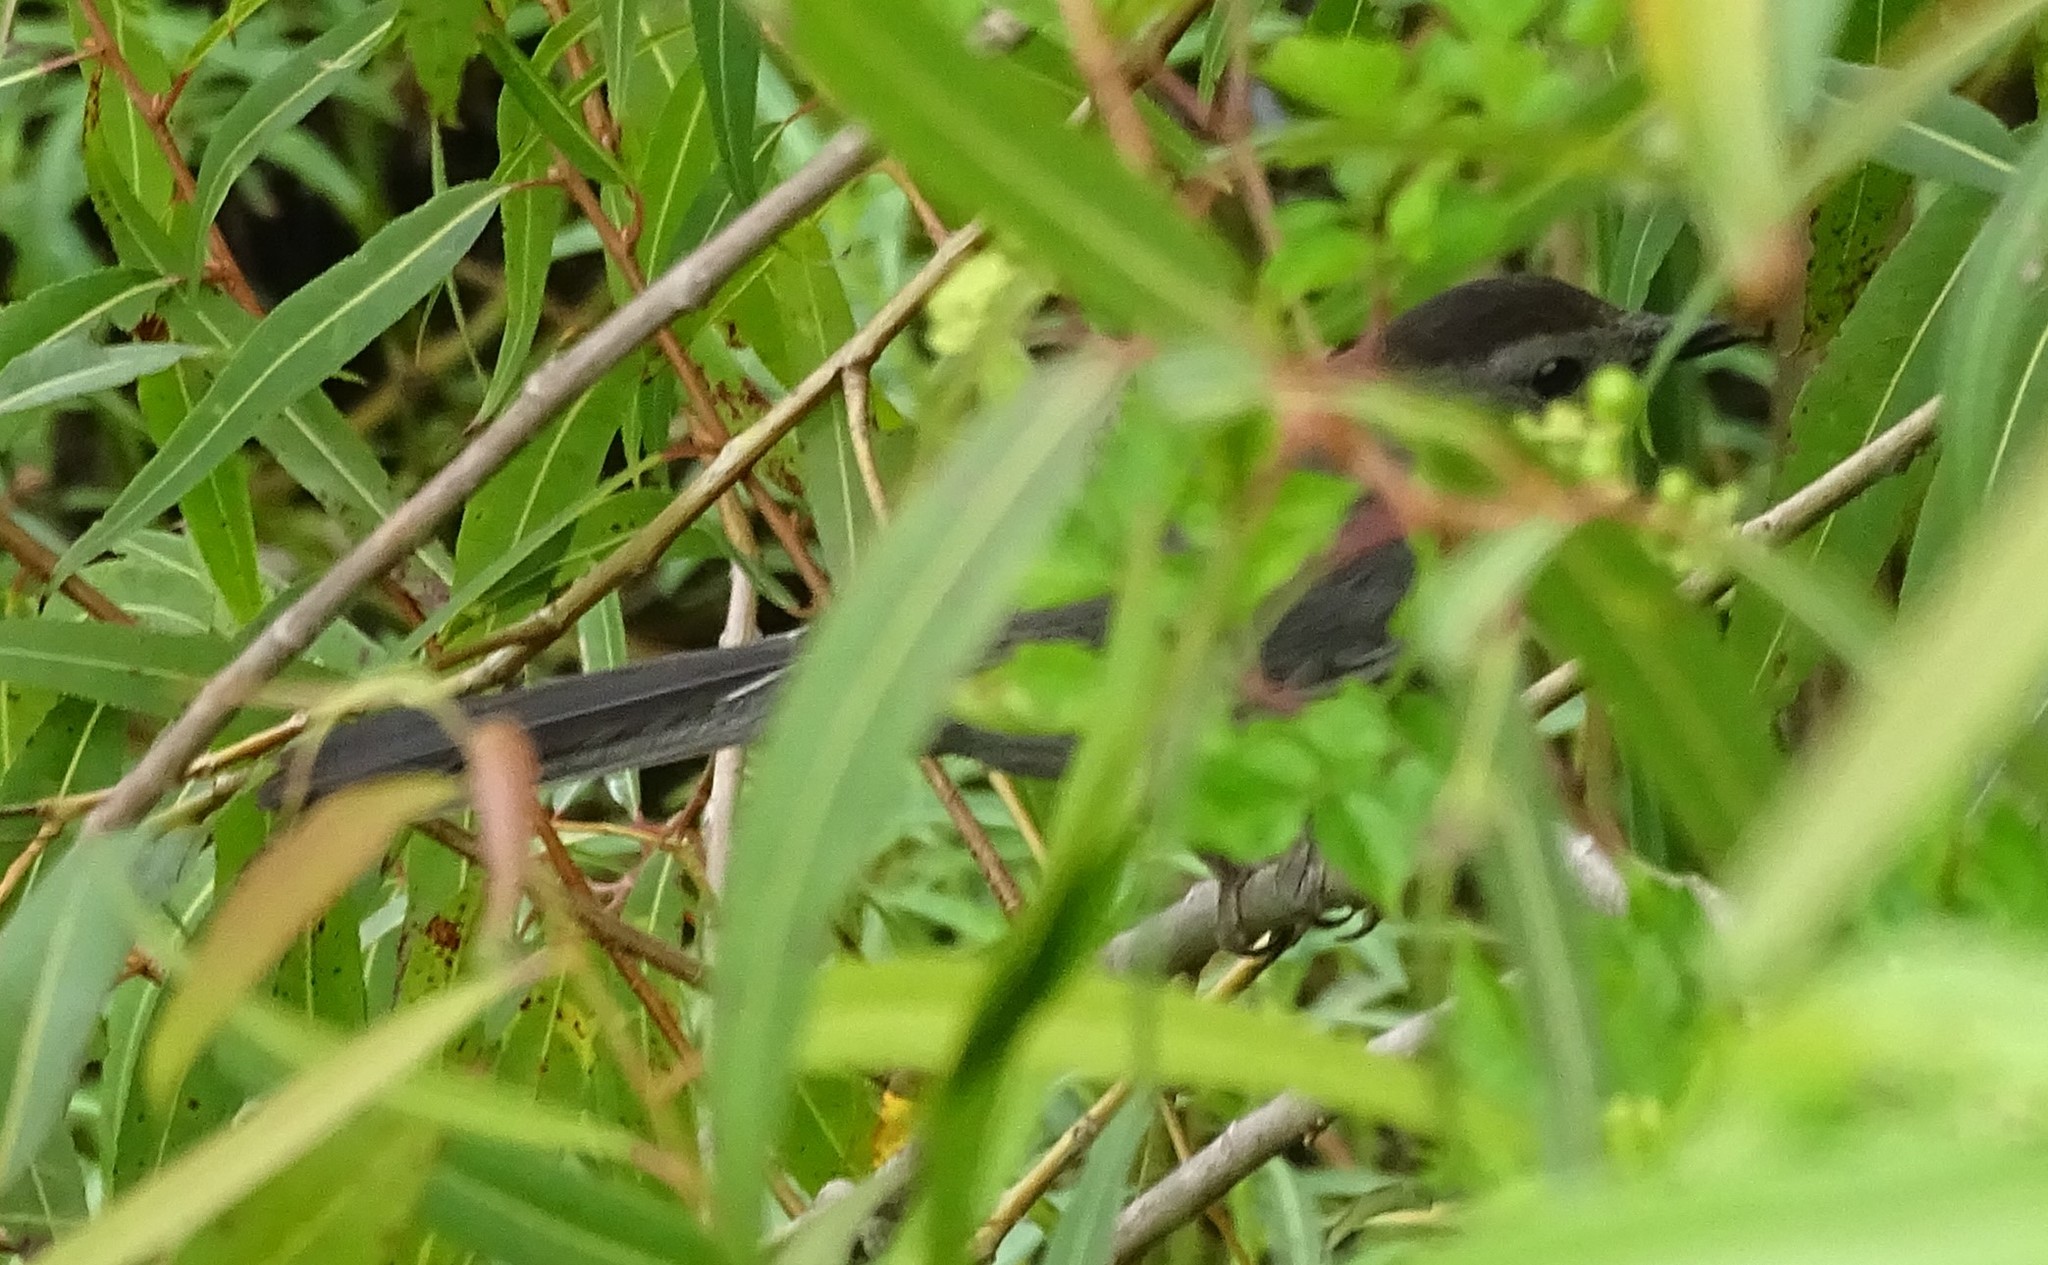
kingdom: Animalia
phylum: Chordata
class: Aves
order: Passeriformes
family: Mimidae
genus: Dumetella
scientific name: Dumetella carolinensis
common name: Gray catbird
